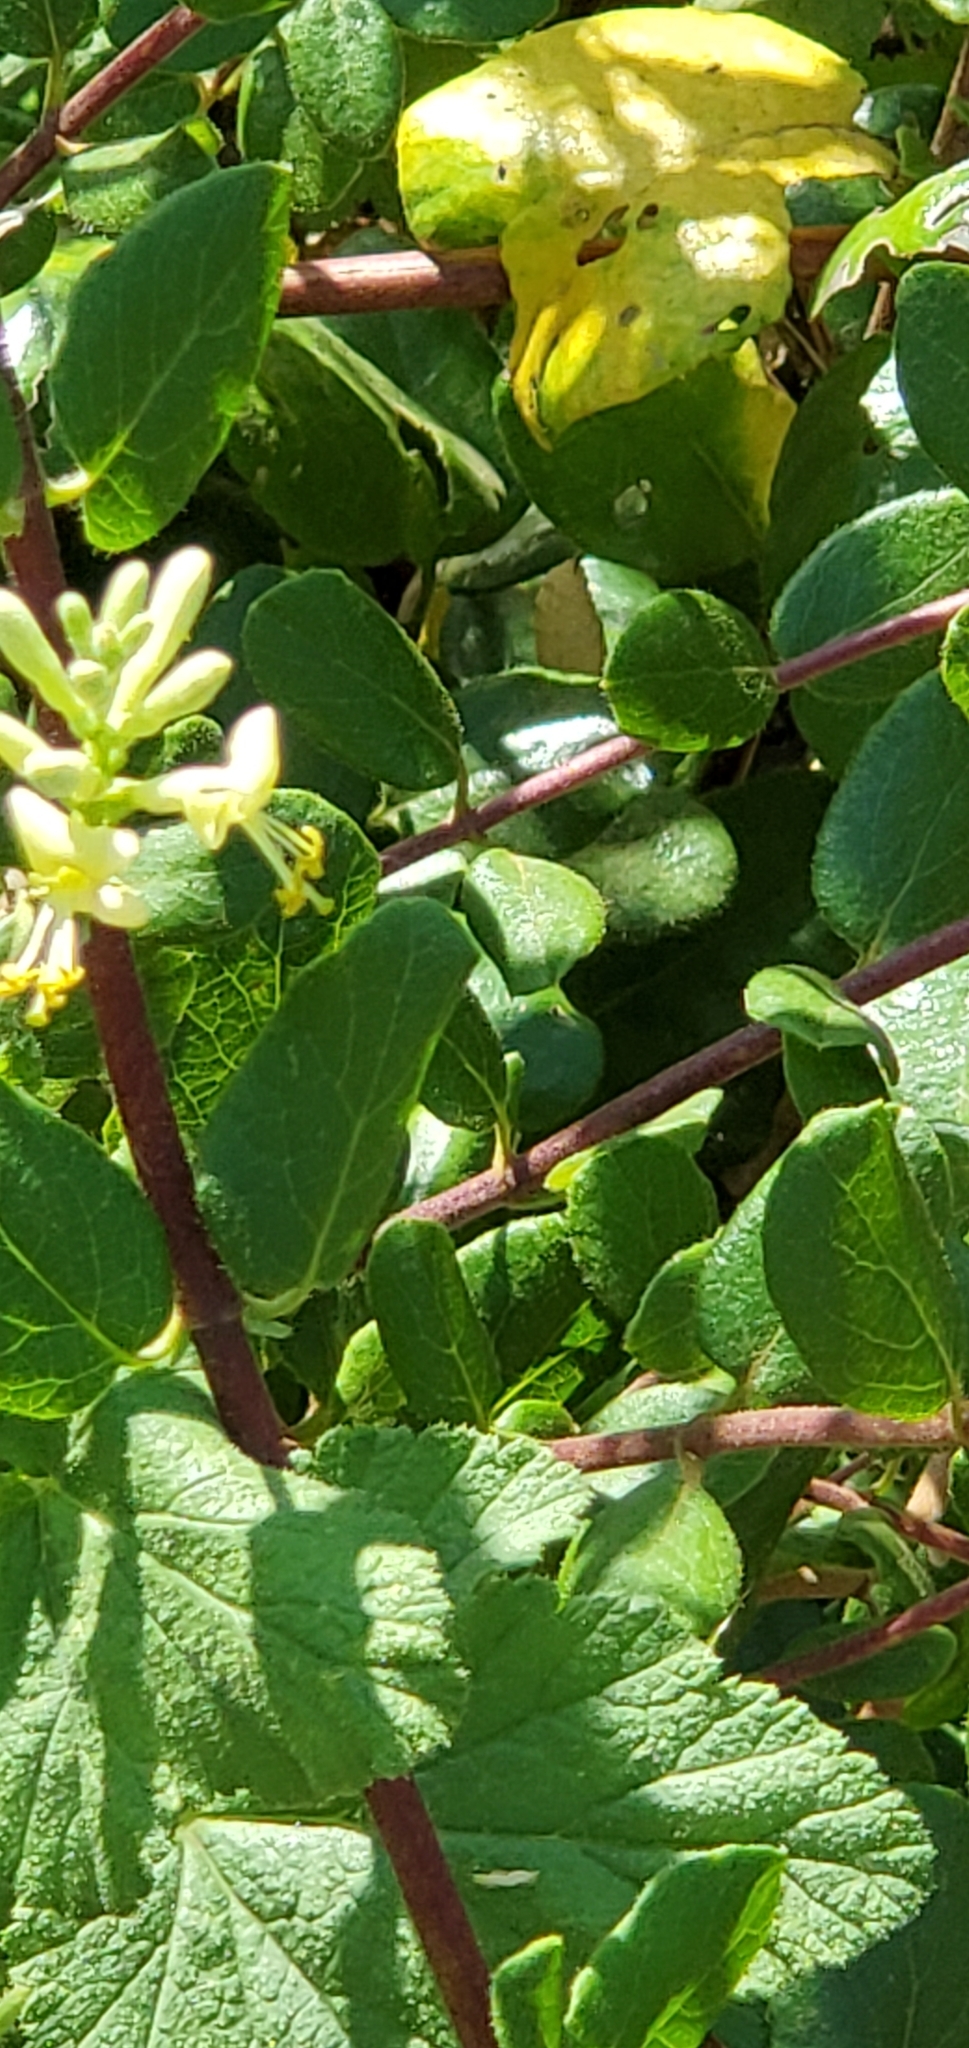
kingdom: Plantae
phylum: Tracheophyta
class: Magnoliopsida
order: Dipsacales
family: Caprifoliaceae
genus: Lonicera
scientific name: Lonicera subspicata
